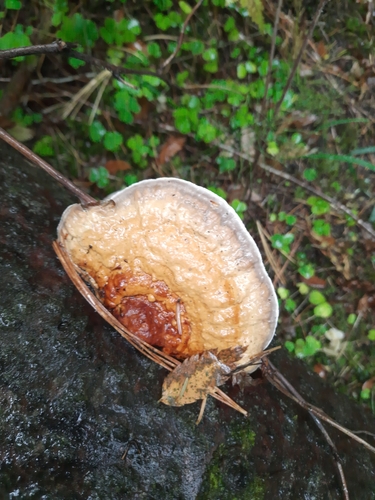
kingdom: Fungi
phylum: Basidiomycota
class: Agaricomycetes
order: Polyporales
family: Fomitopsidaceae
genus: Fomitopsis
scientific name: Fomitopsis pinicola
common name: Red-belted bracket
